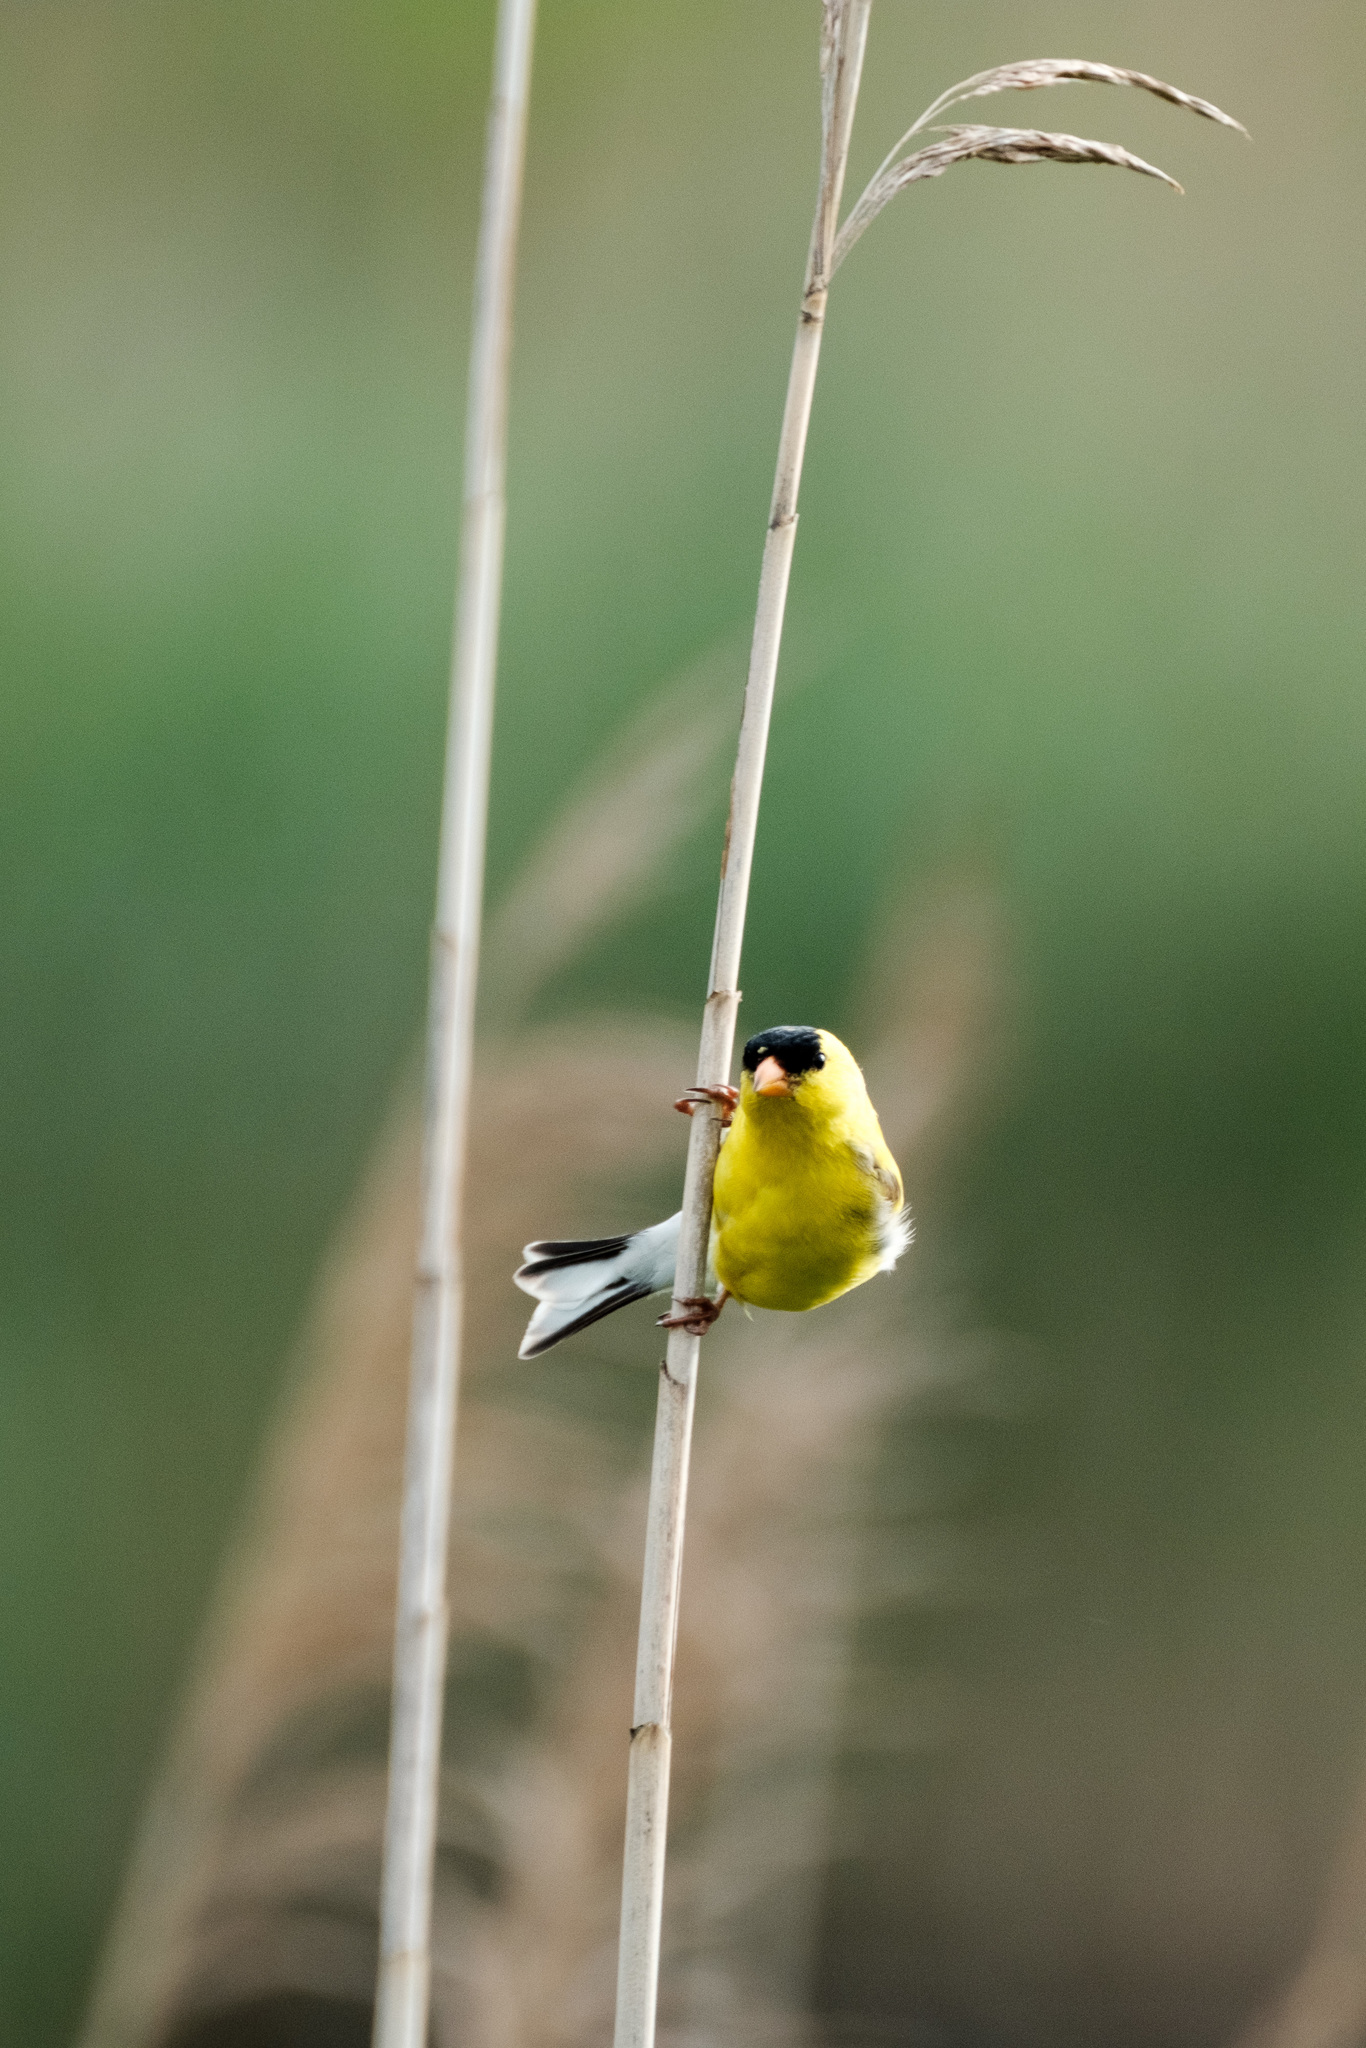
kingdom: Animalia
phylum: Chordata
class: Aves
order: Passeriformes
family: Fringillidae
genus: Spinus
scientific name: Spinus tristis
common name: American goldfinch
